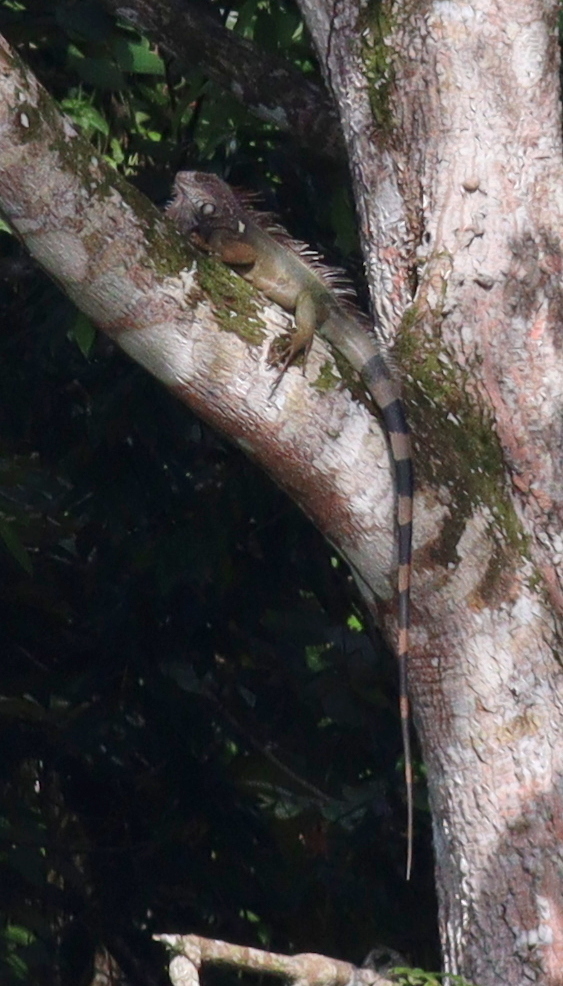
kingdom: Animalia
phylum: Chordata
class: Squamata
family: Iguanidae
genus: Iguana
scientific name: Iguana iguana
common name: Green iguana
